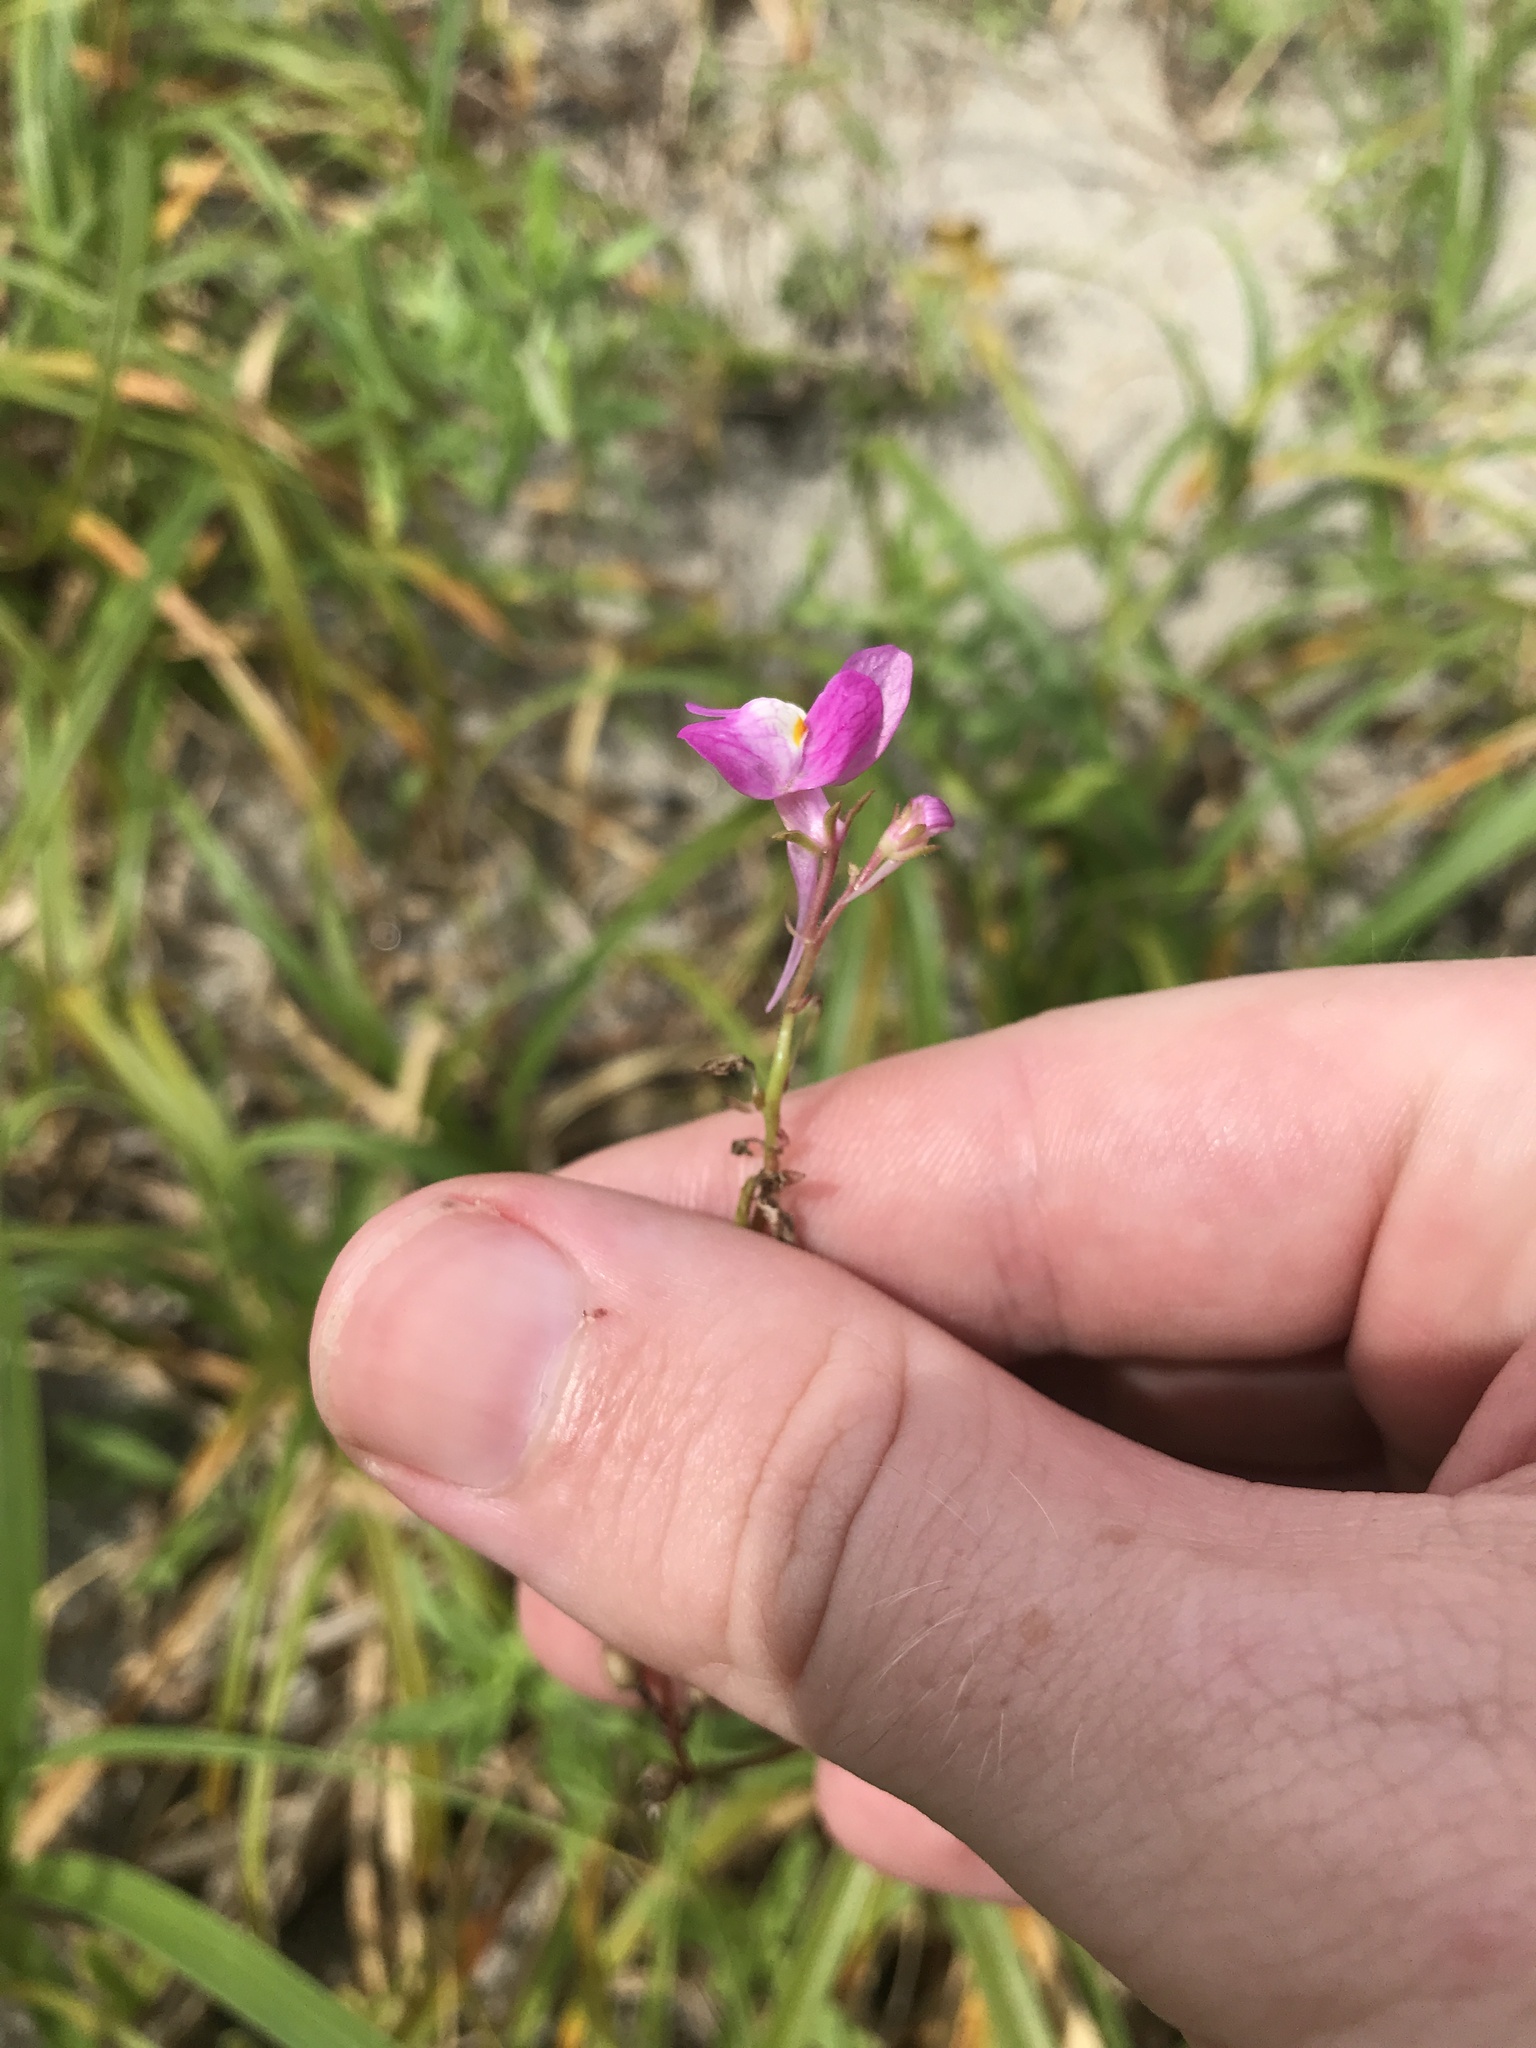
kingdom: Plantae
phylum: Tracheophyta
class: Magnoliopsida
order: Lamiales
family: Plantaginaceae
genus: Linaria
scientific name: Linaria maroccana
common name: Moroccan toadflax
